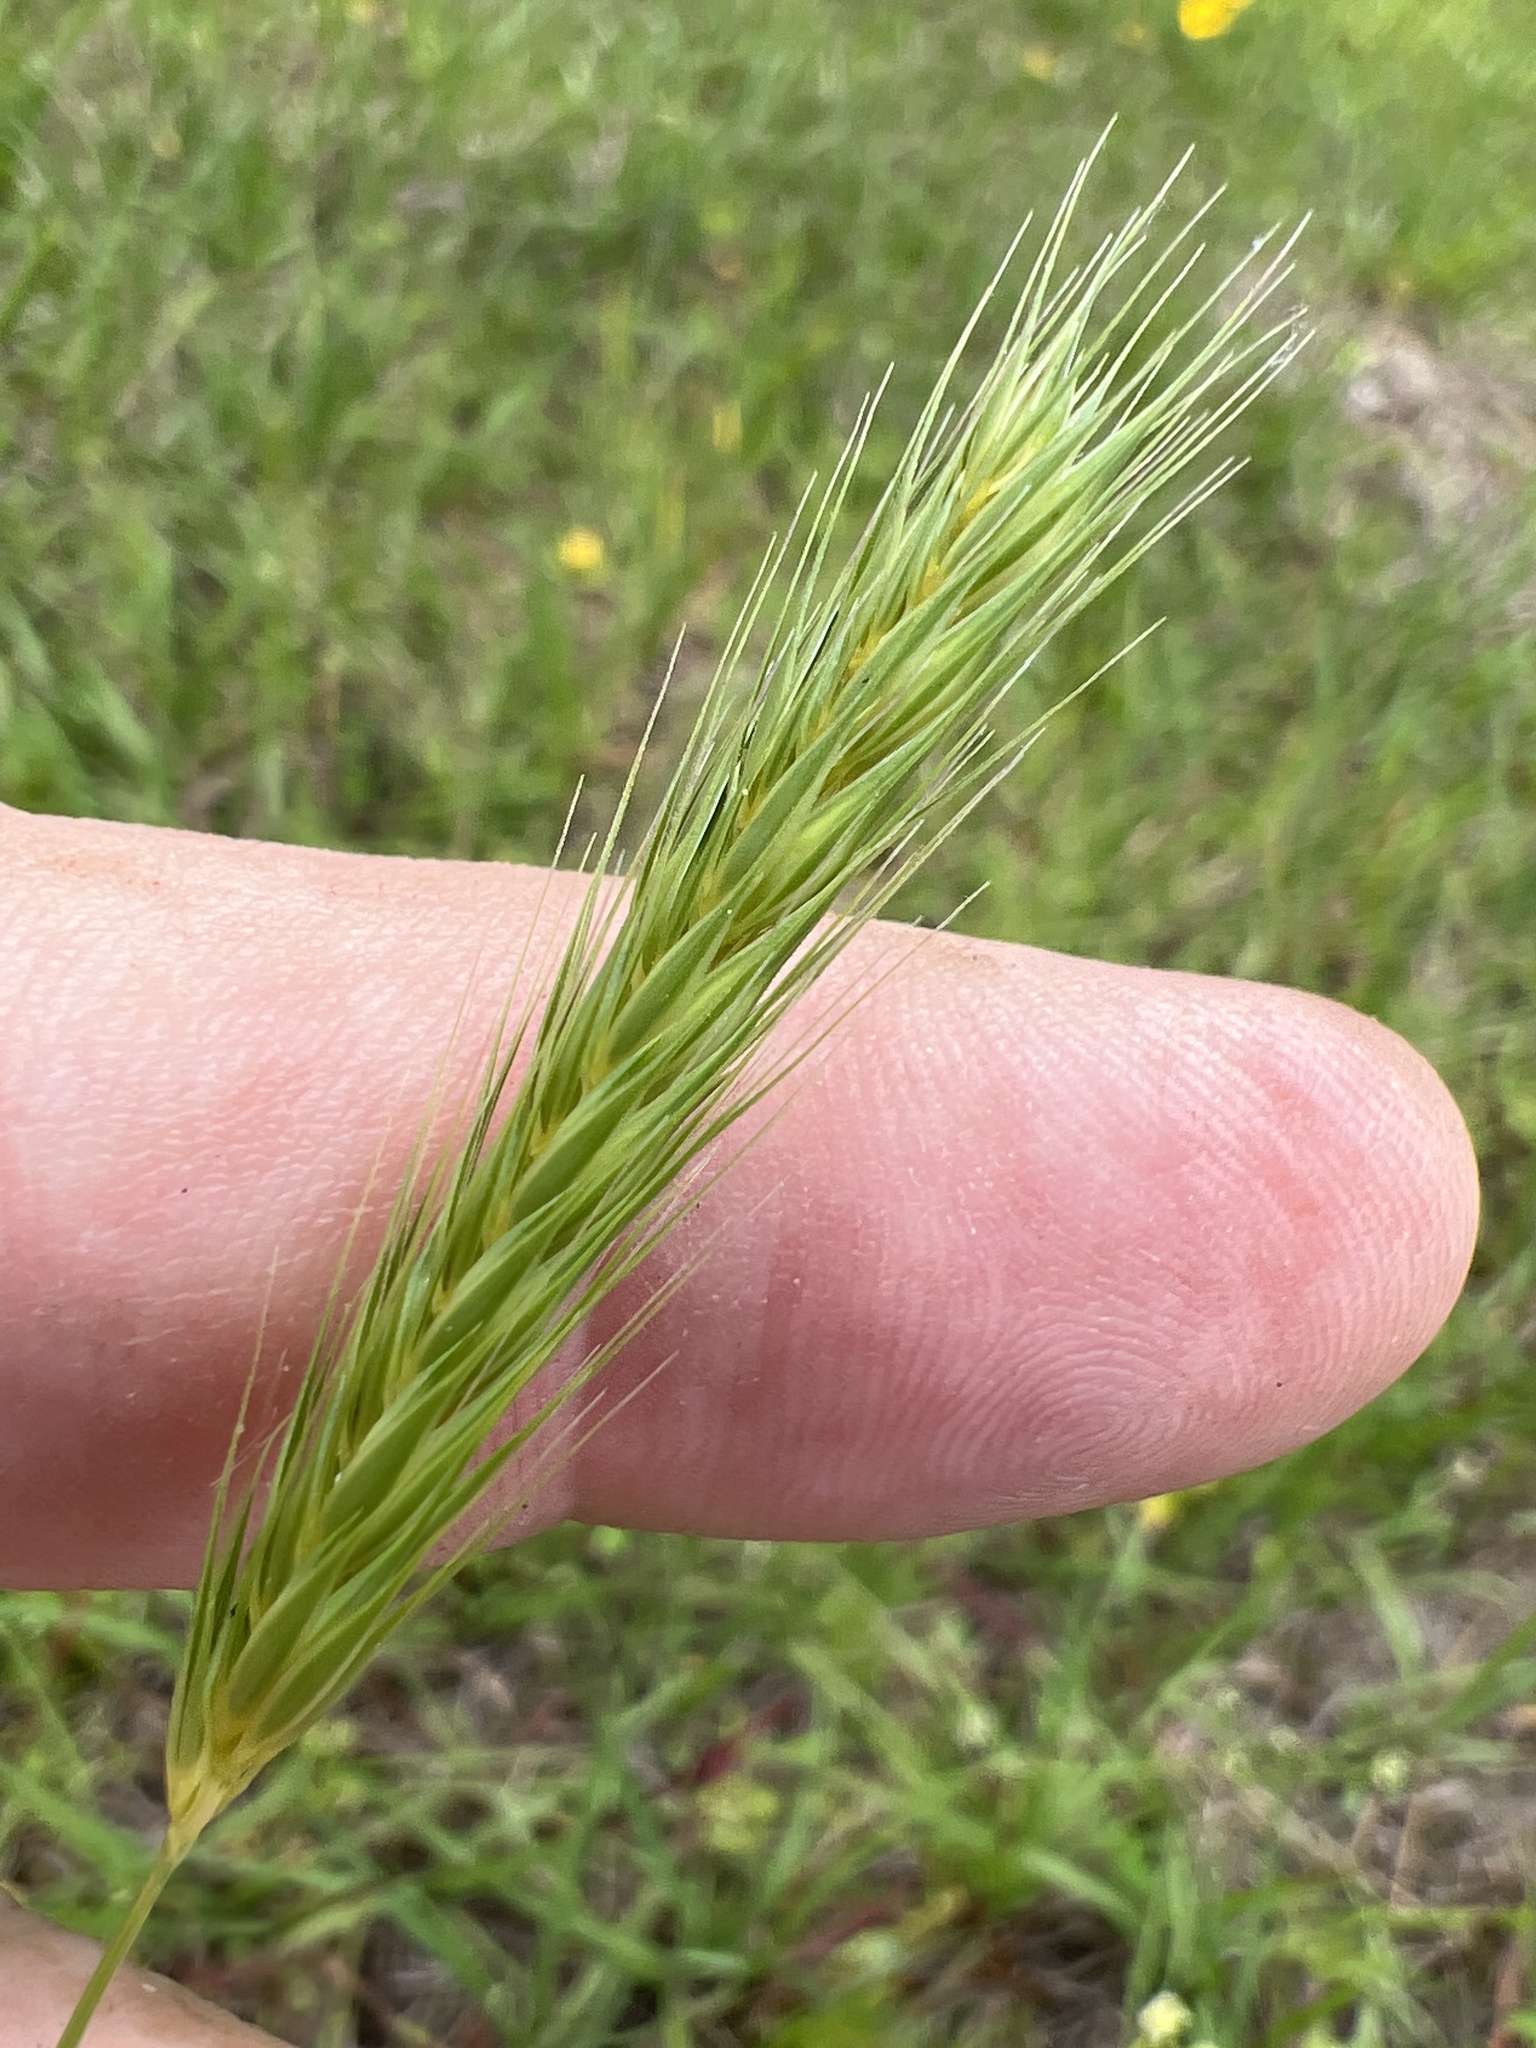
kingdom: Plantae
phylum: Tracheophyta
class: Liliopsida
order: Poales
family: Poaceae
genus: Hordeum
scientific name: Hordeum pusillum
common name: Little barley
